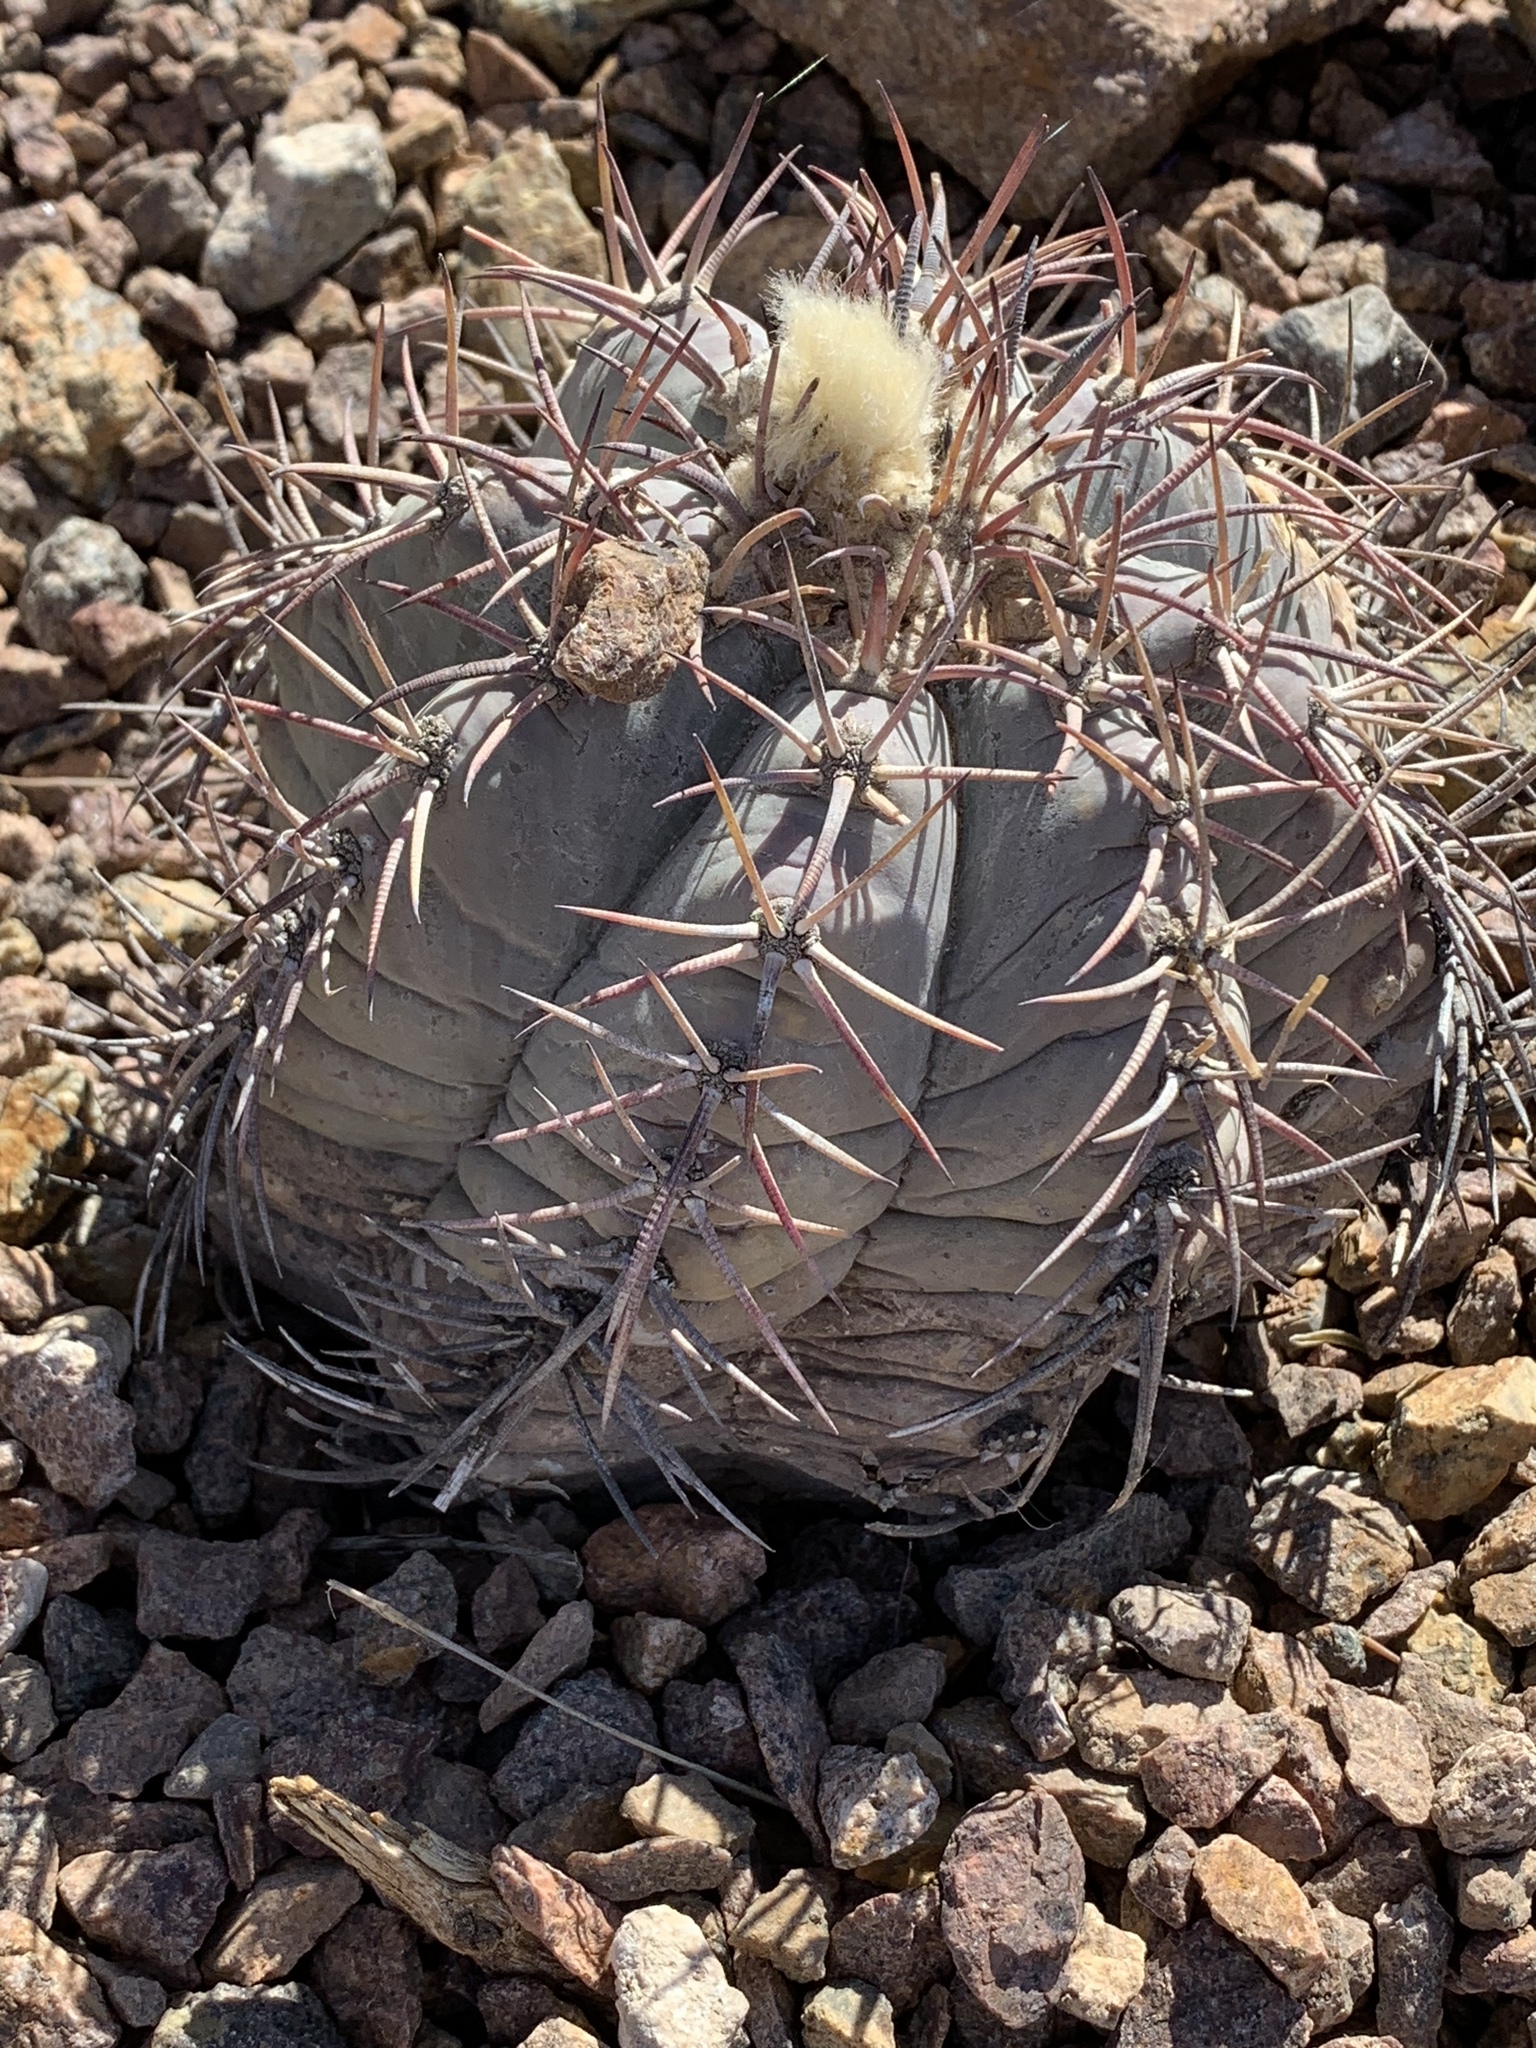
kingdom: Plantae
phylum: Tracheophyta
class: Magnoliopsida
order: Caryophyllales
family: Cactaceae
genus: Echinocactus
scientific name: Echinocactus horizonthalonius
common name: Devilshead
